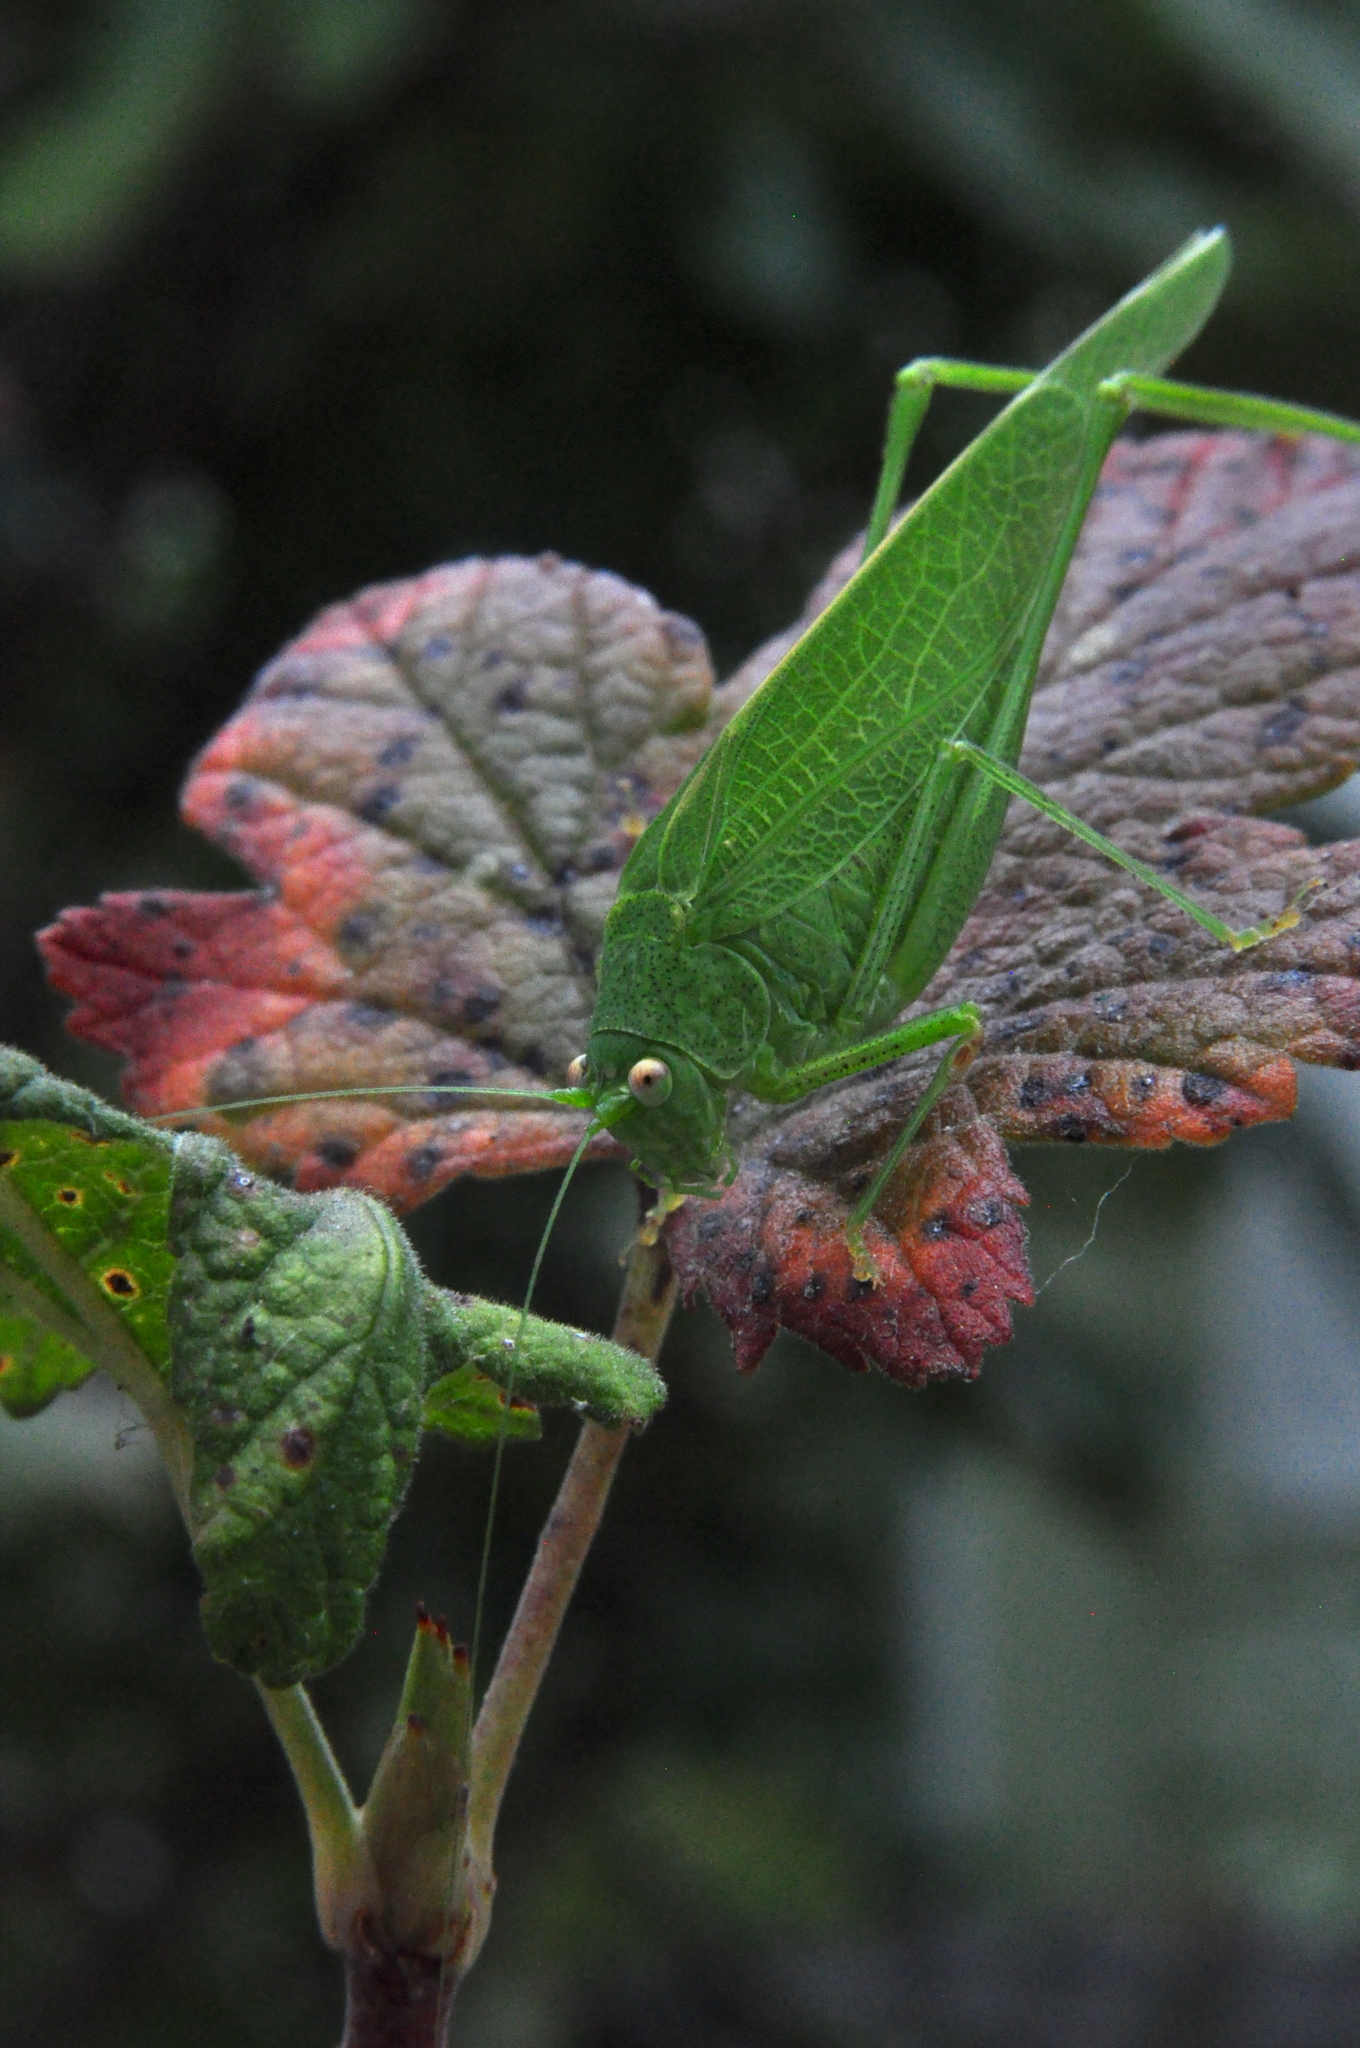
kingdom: Animalia
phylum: Arthropoda
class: Insecta
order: Orthoptera
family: Tettigoniidae
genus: Phaneroptera
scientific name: Phaneroptera nana
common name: Southern sickle bush-cricket
